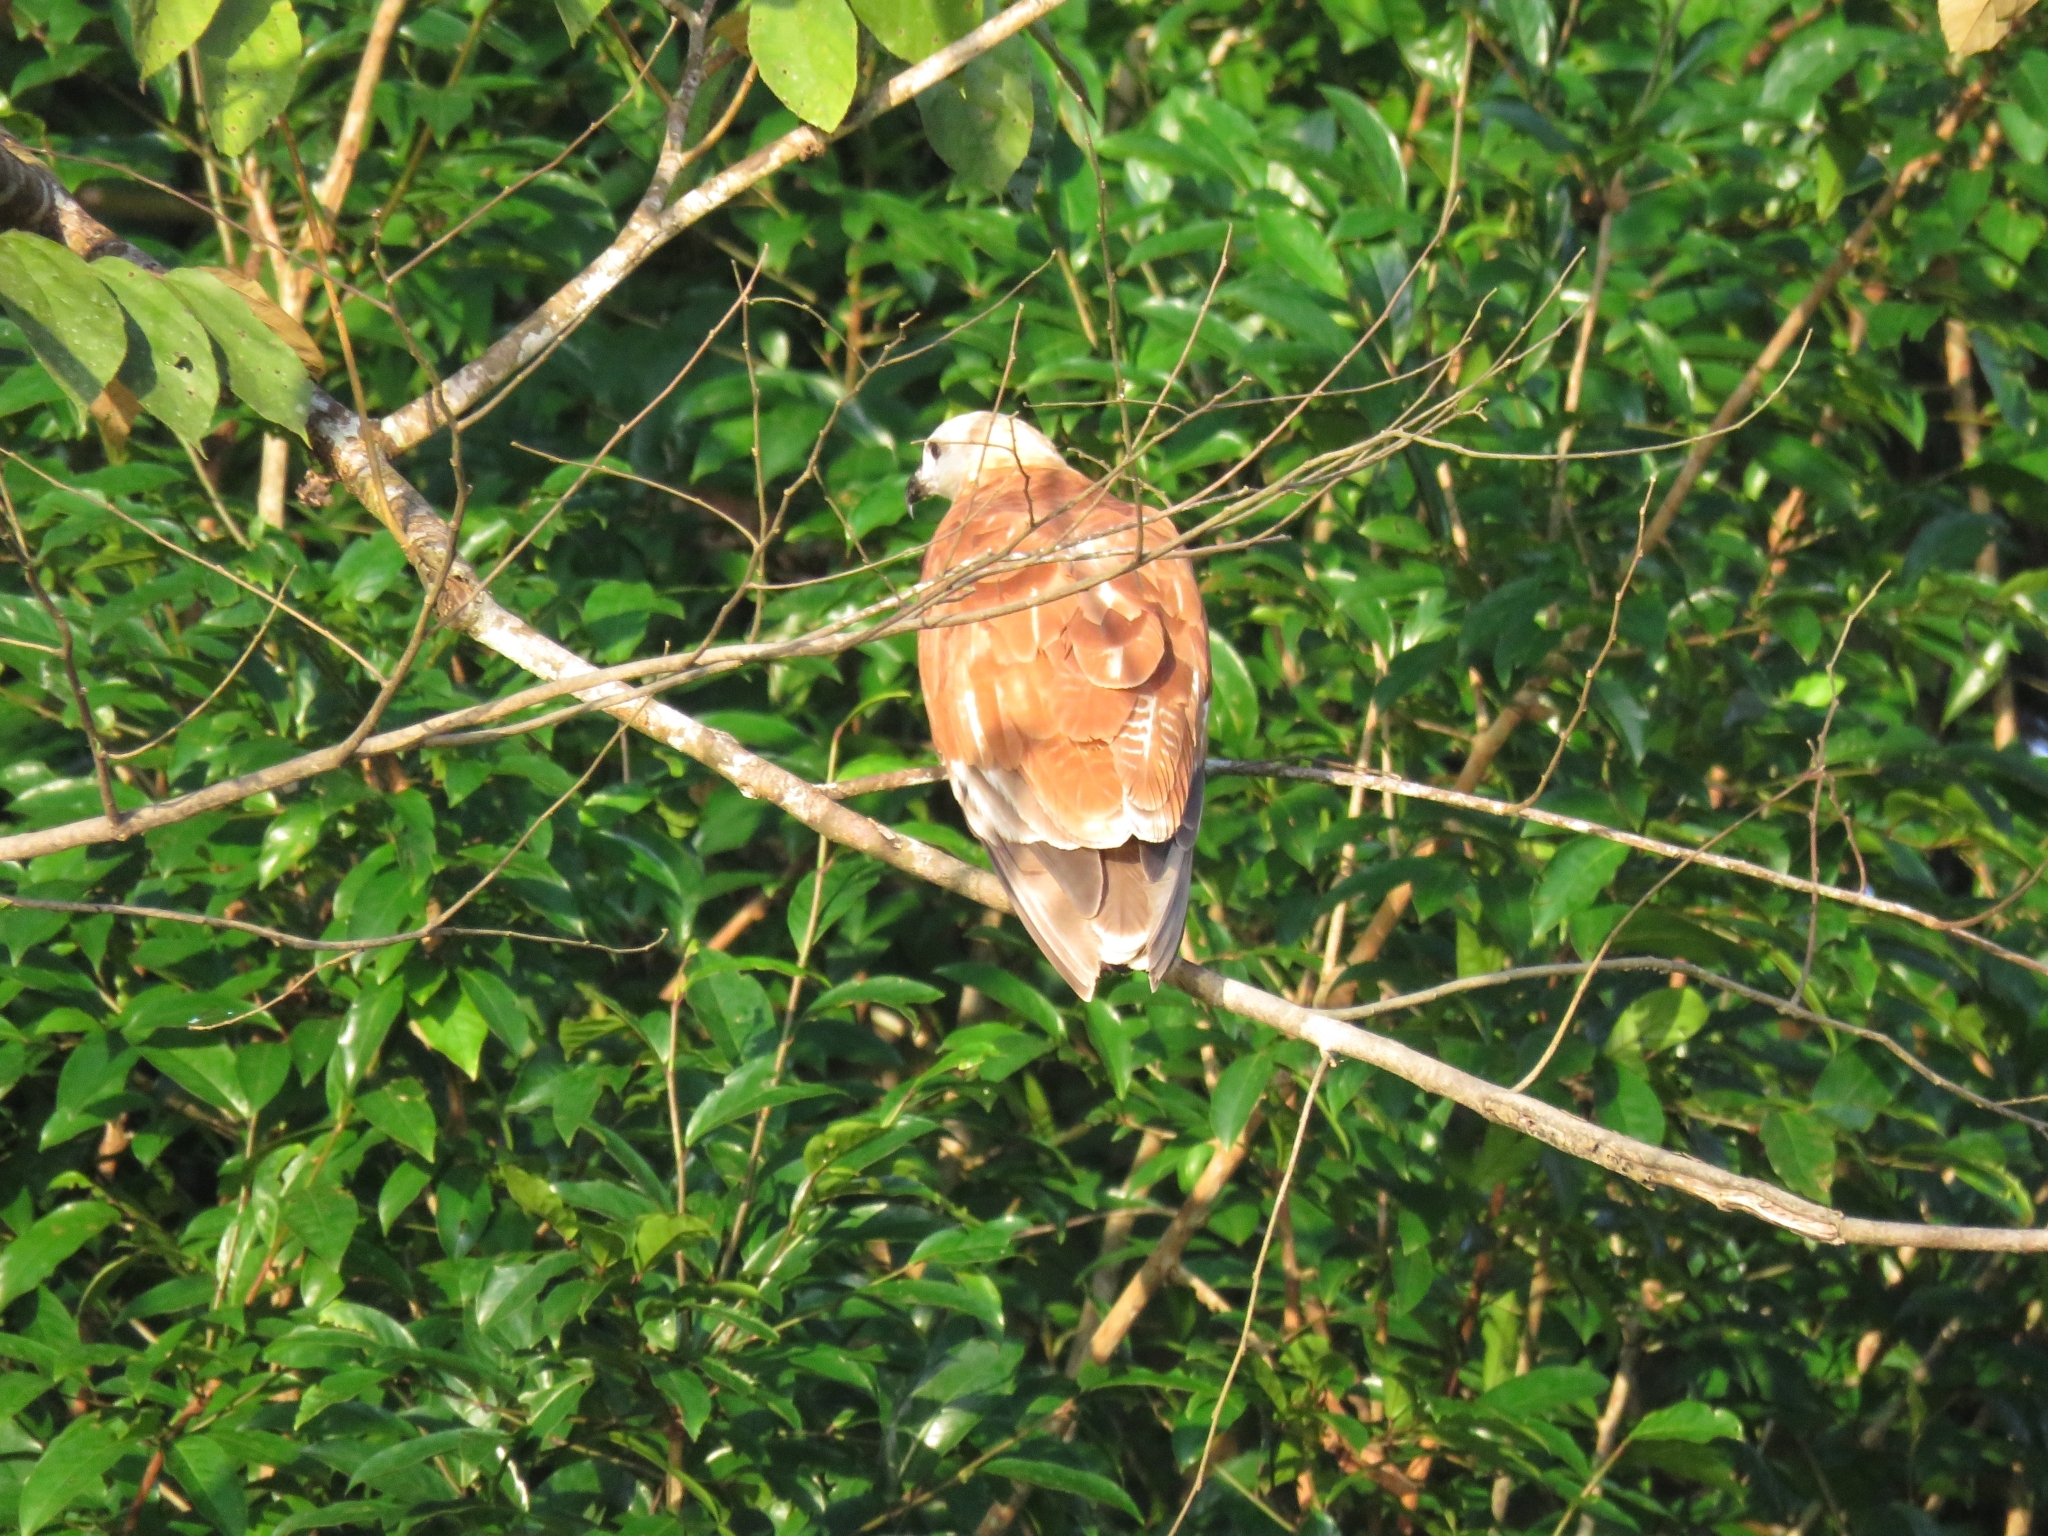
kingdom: Animalia
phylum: Chordata
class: Aves
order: Accipitriformes
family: Accipitridae
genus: Busarellus
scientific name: Busarellus nigricollis
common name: Black-collared hawk
